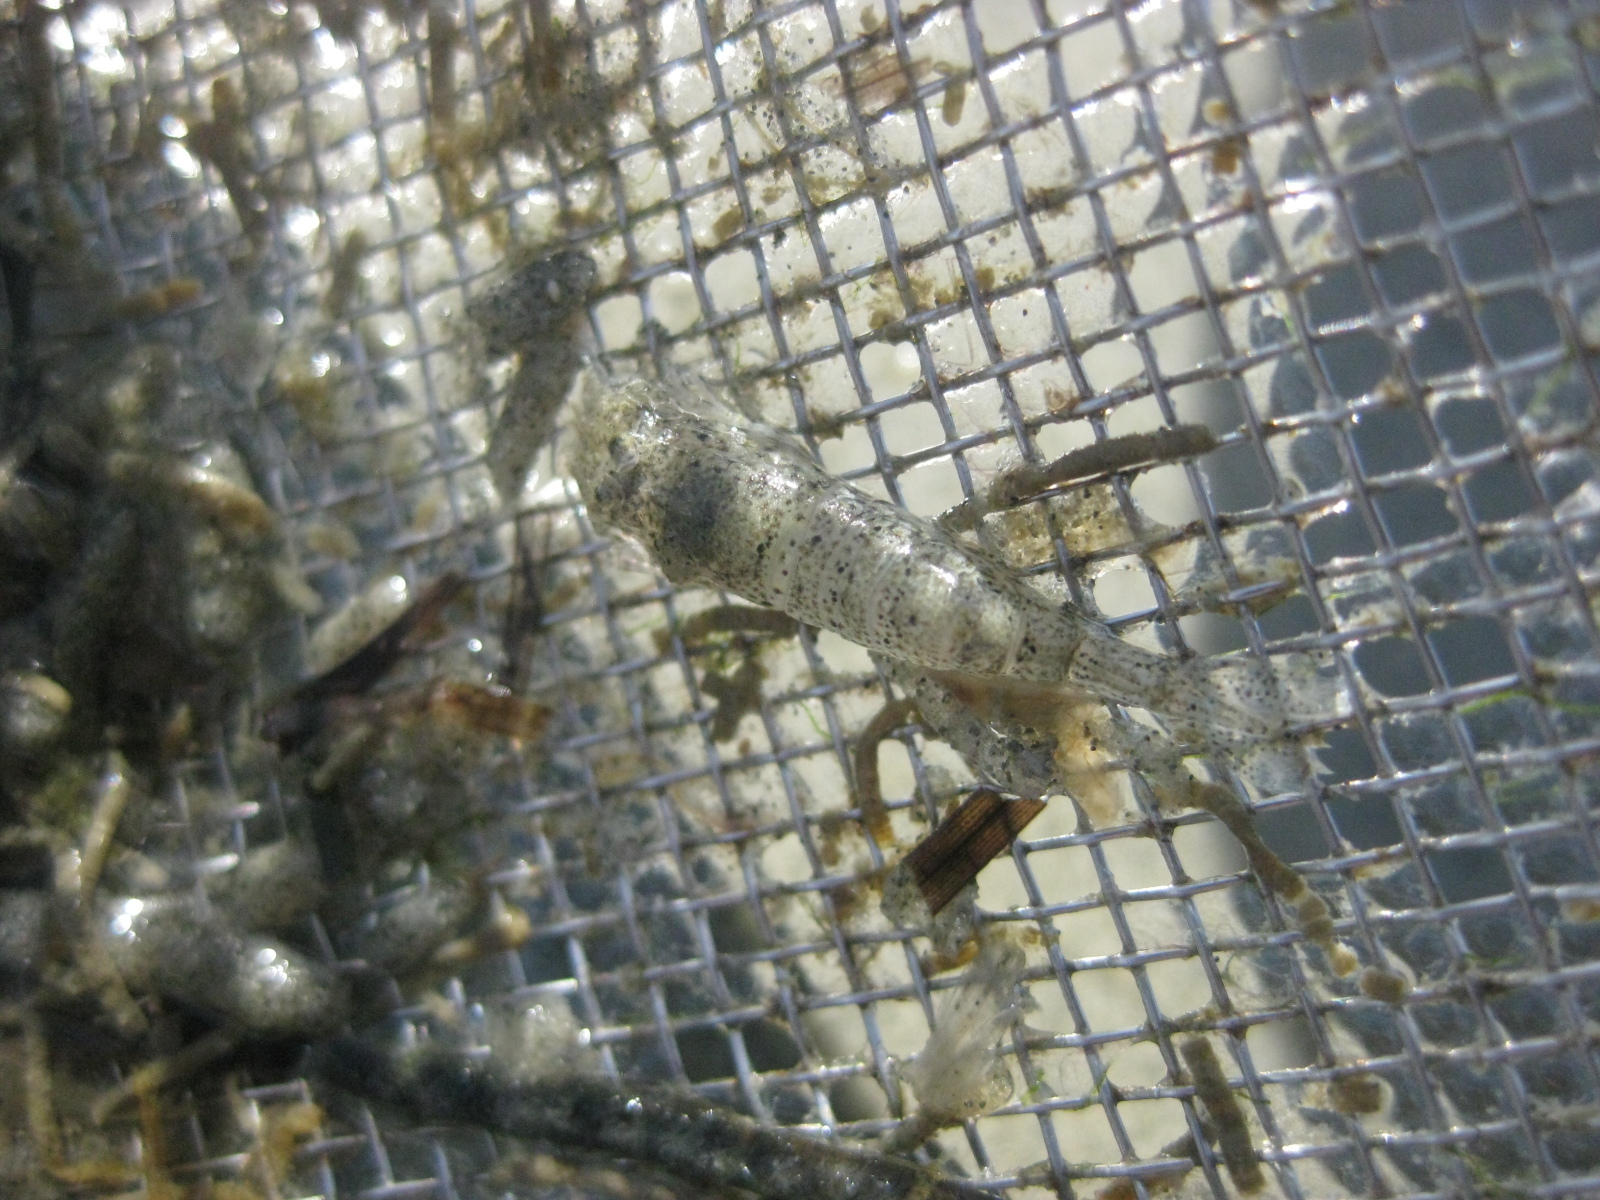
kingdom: Animalia
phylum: Arthropoda
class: Malacostraca
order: Decapoda
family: Crangonidae
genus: Philocheras
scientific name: Philocheras australis
